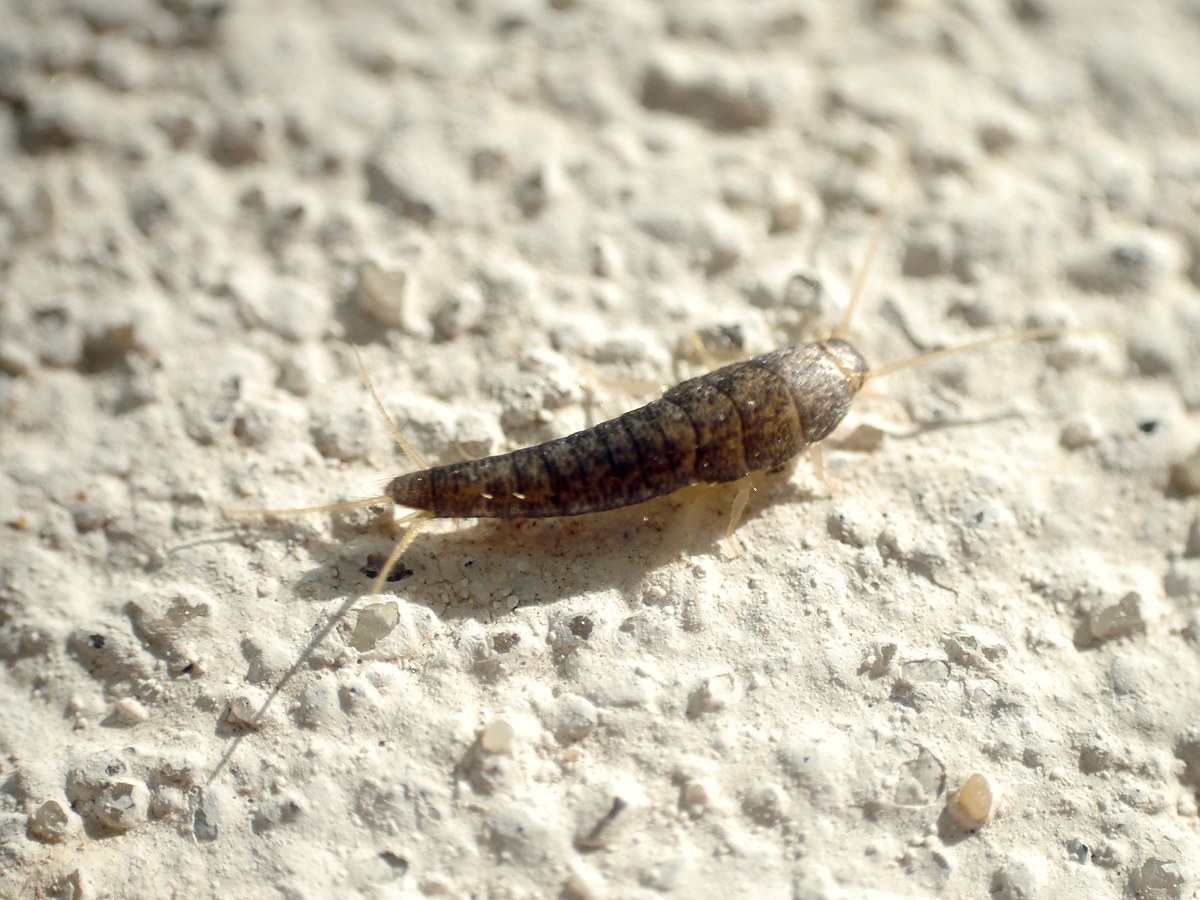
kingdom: Animalia
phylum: Arthropoda
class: Insecta
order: Zygentoma
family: Lepismatidae
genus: Lepisma
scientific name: Lepisma saccharinum
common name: Silverfish
